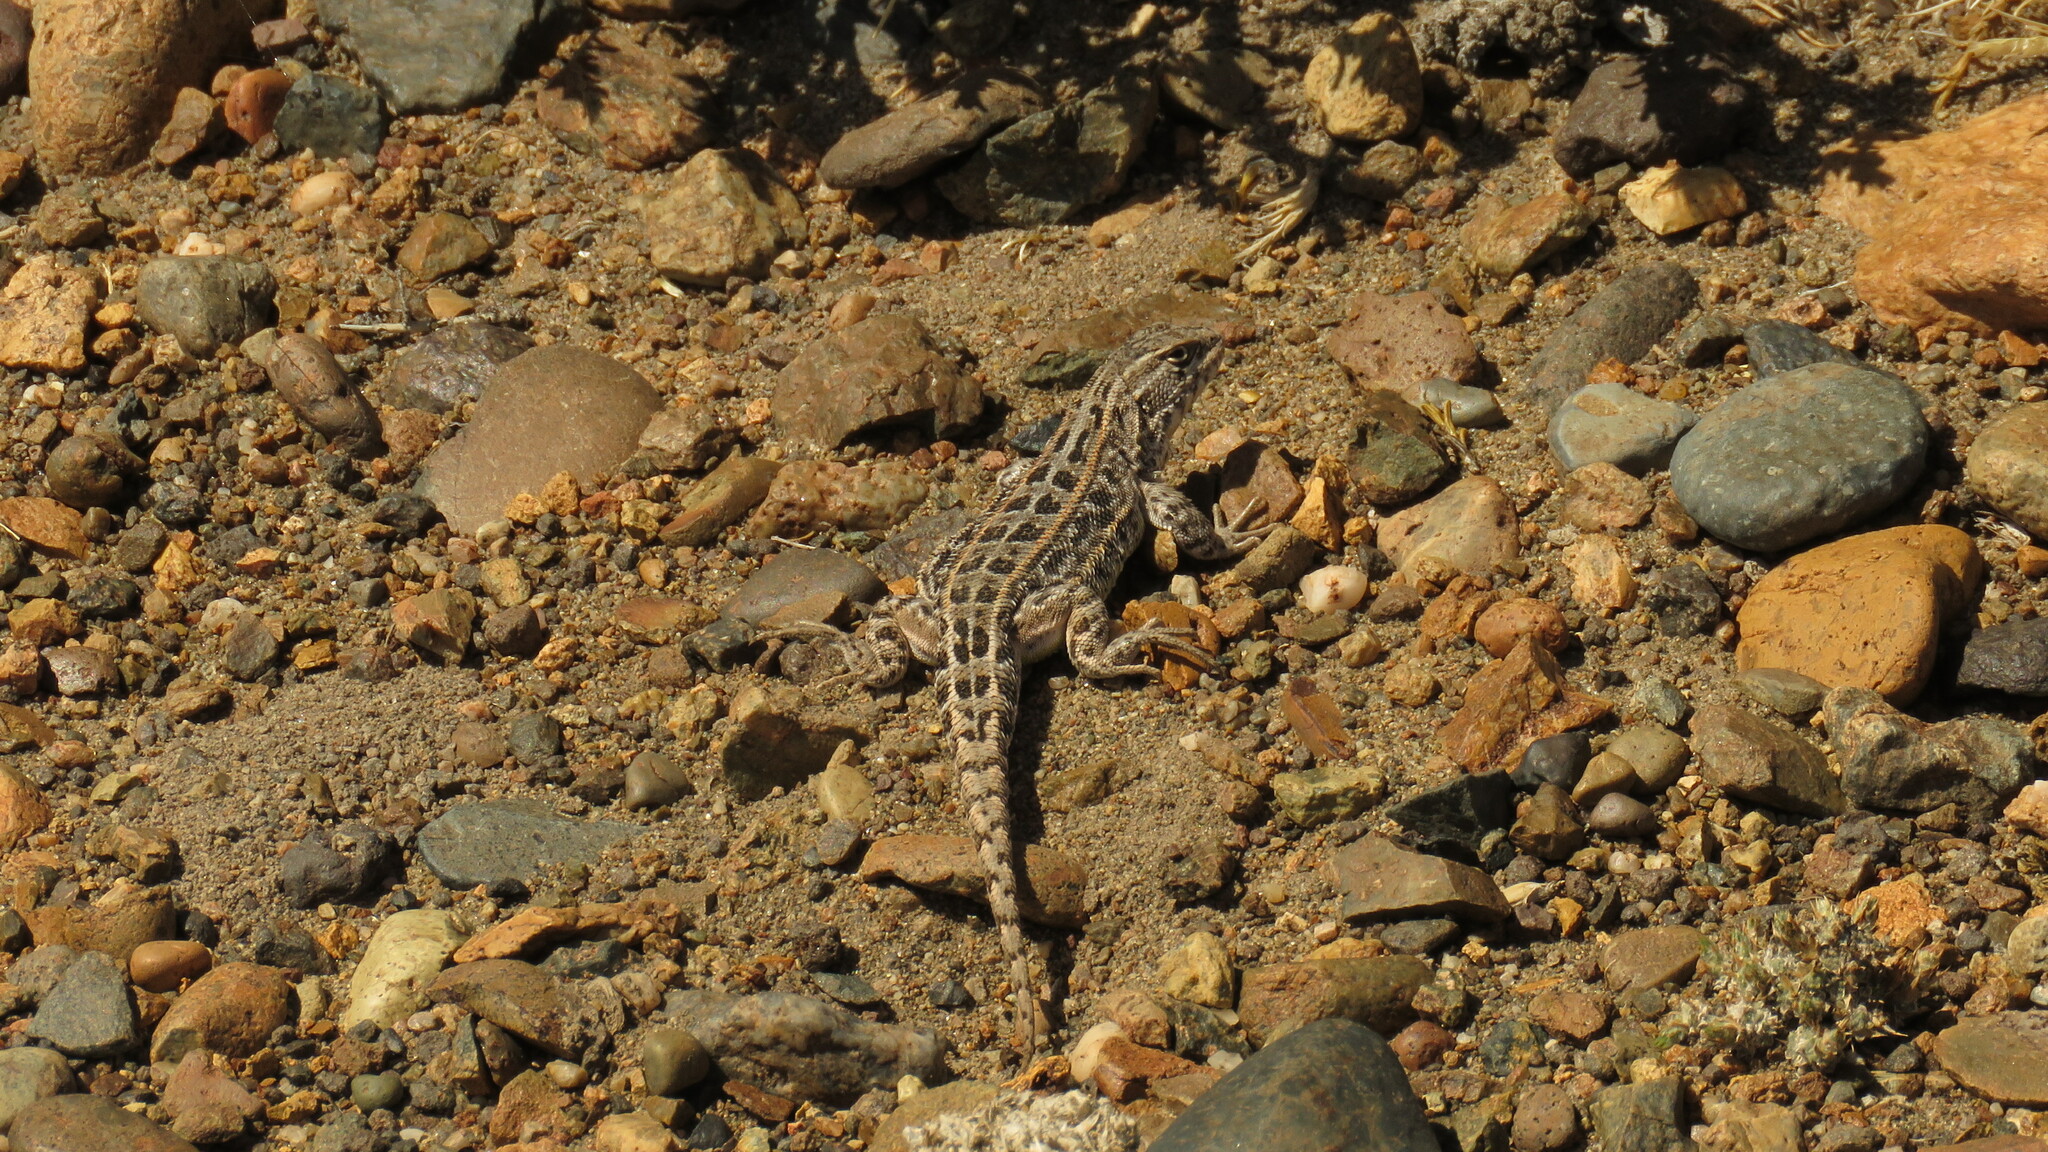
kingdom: Animalia
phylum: Chordata
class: Squamata
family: Liolaemidae
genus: Liolaemus
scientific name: Liolaemus avilai
